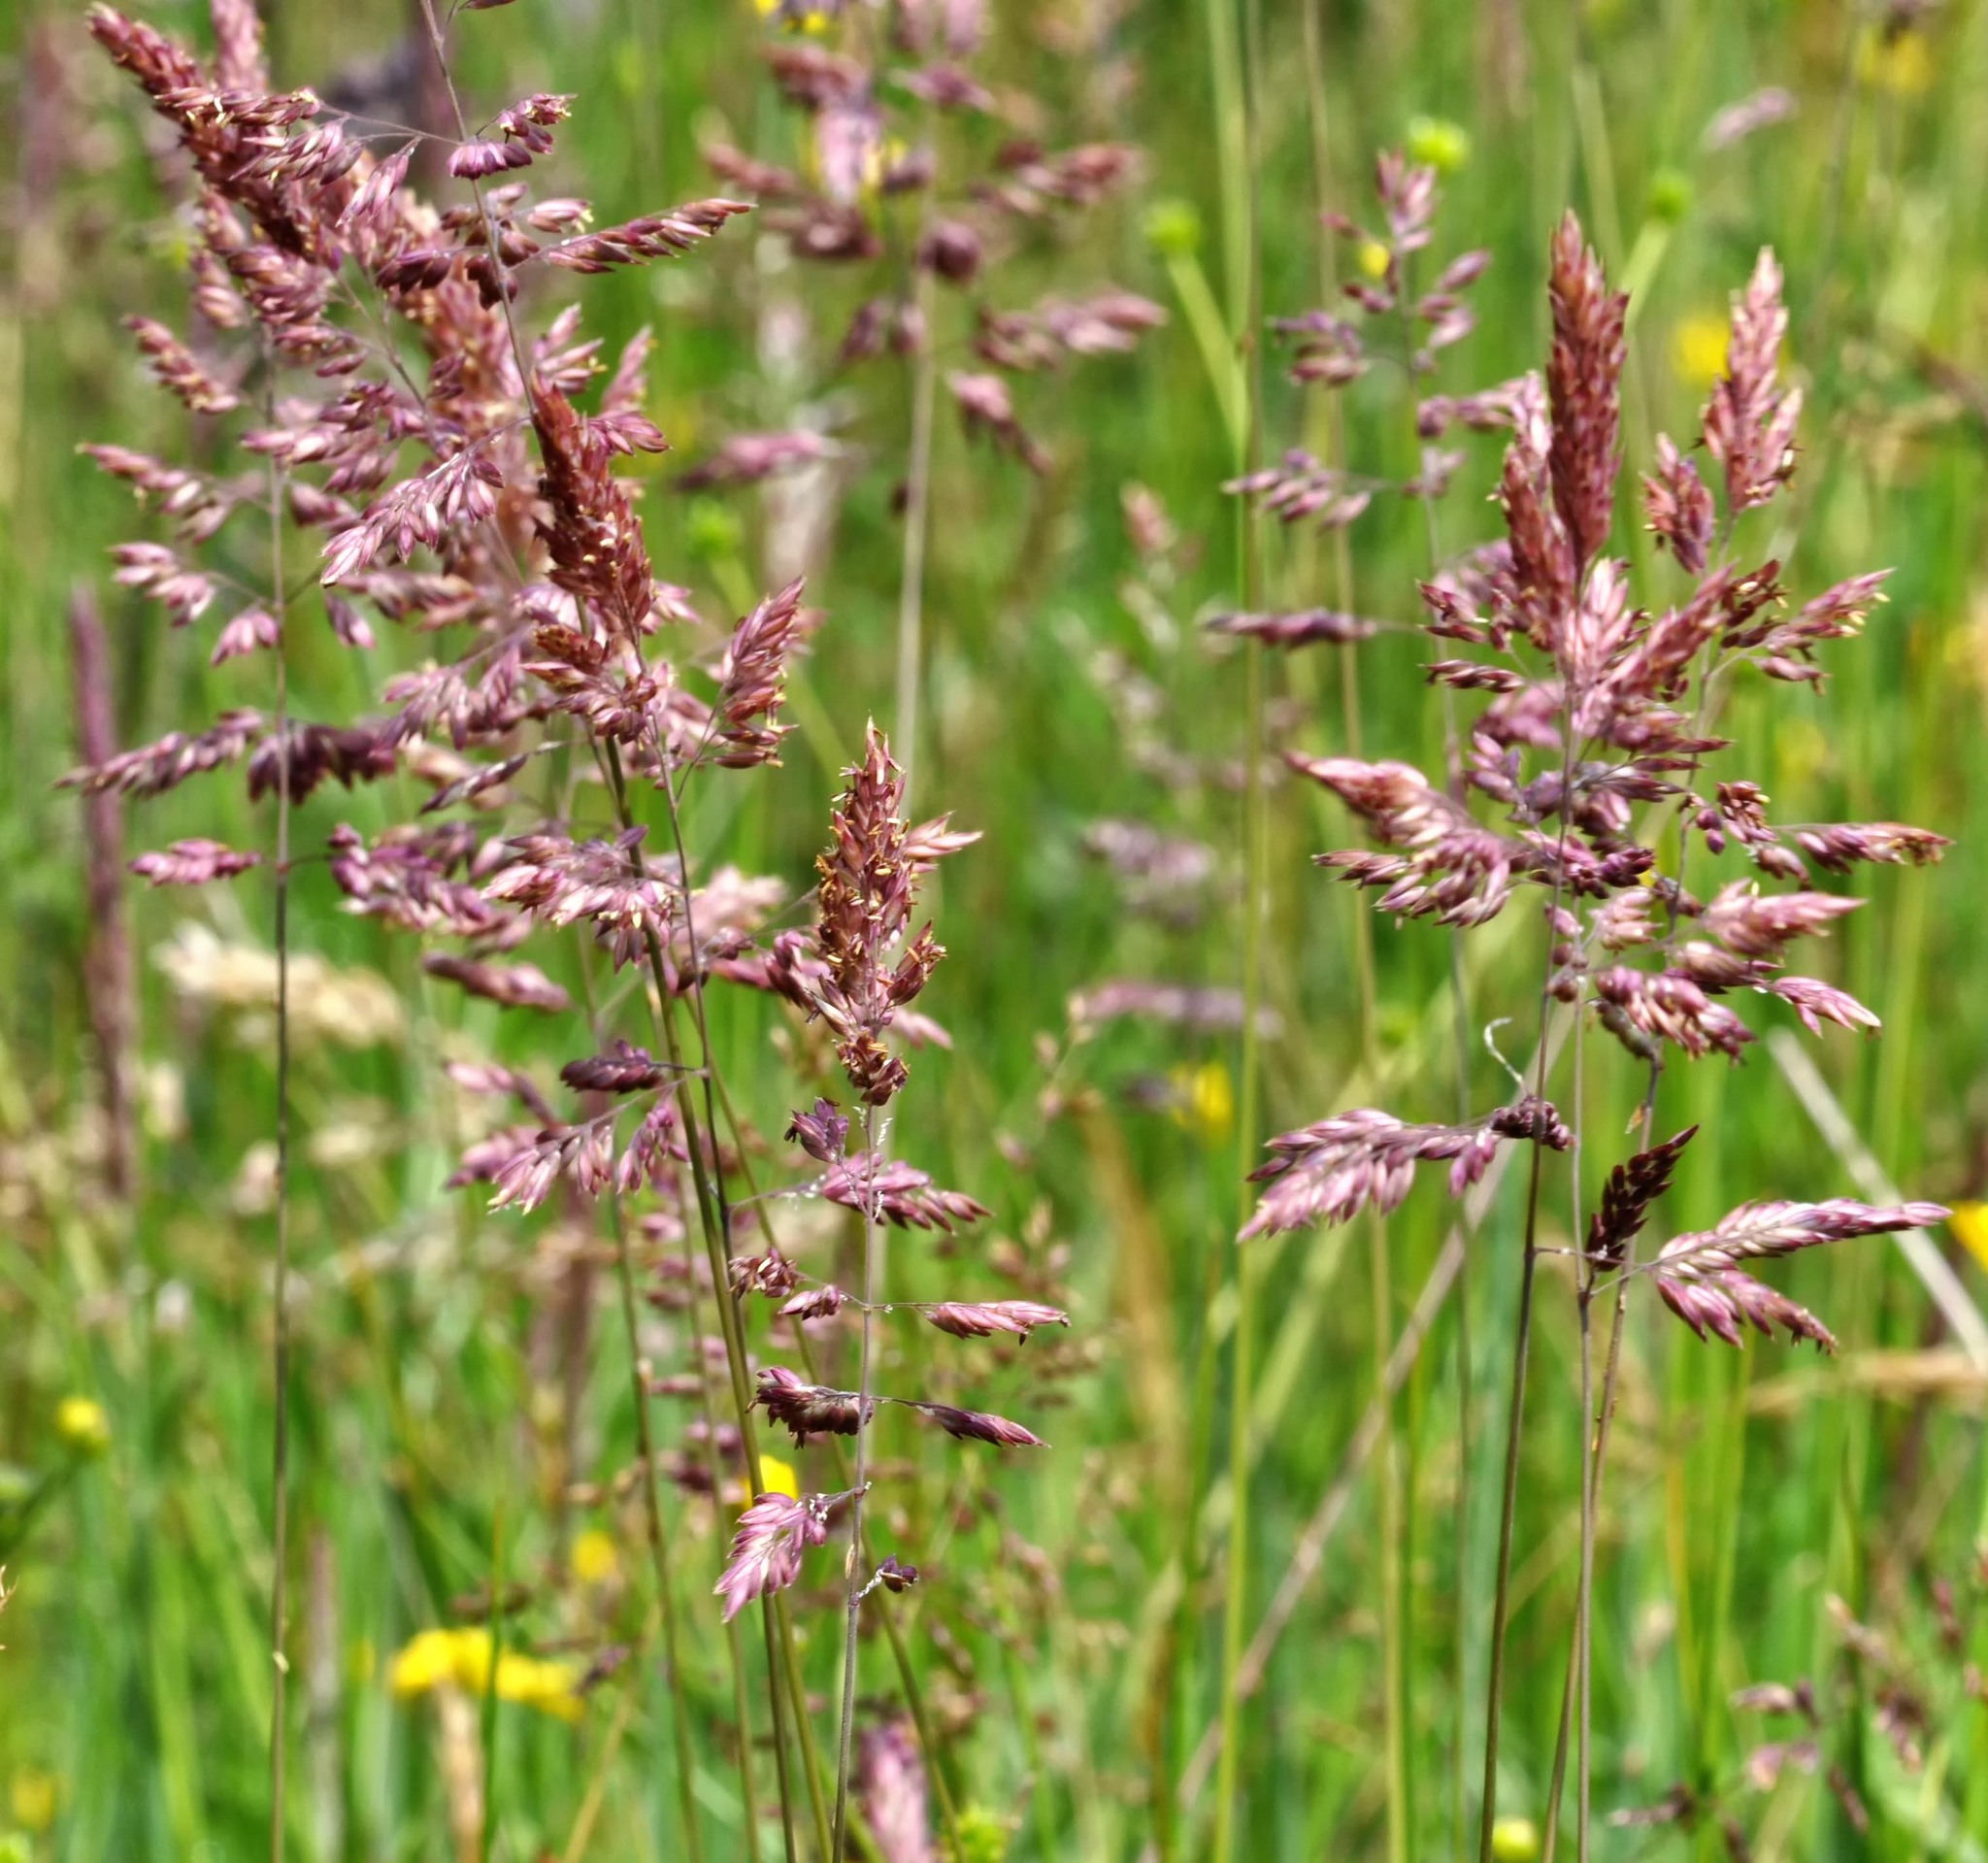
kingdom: Plantae
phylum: Tracheophyta
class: Liliopsida
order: Poales
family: Poaceae
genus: Holcus
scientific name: Holcus lanatus
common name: Yorkshire-fog
